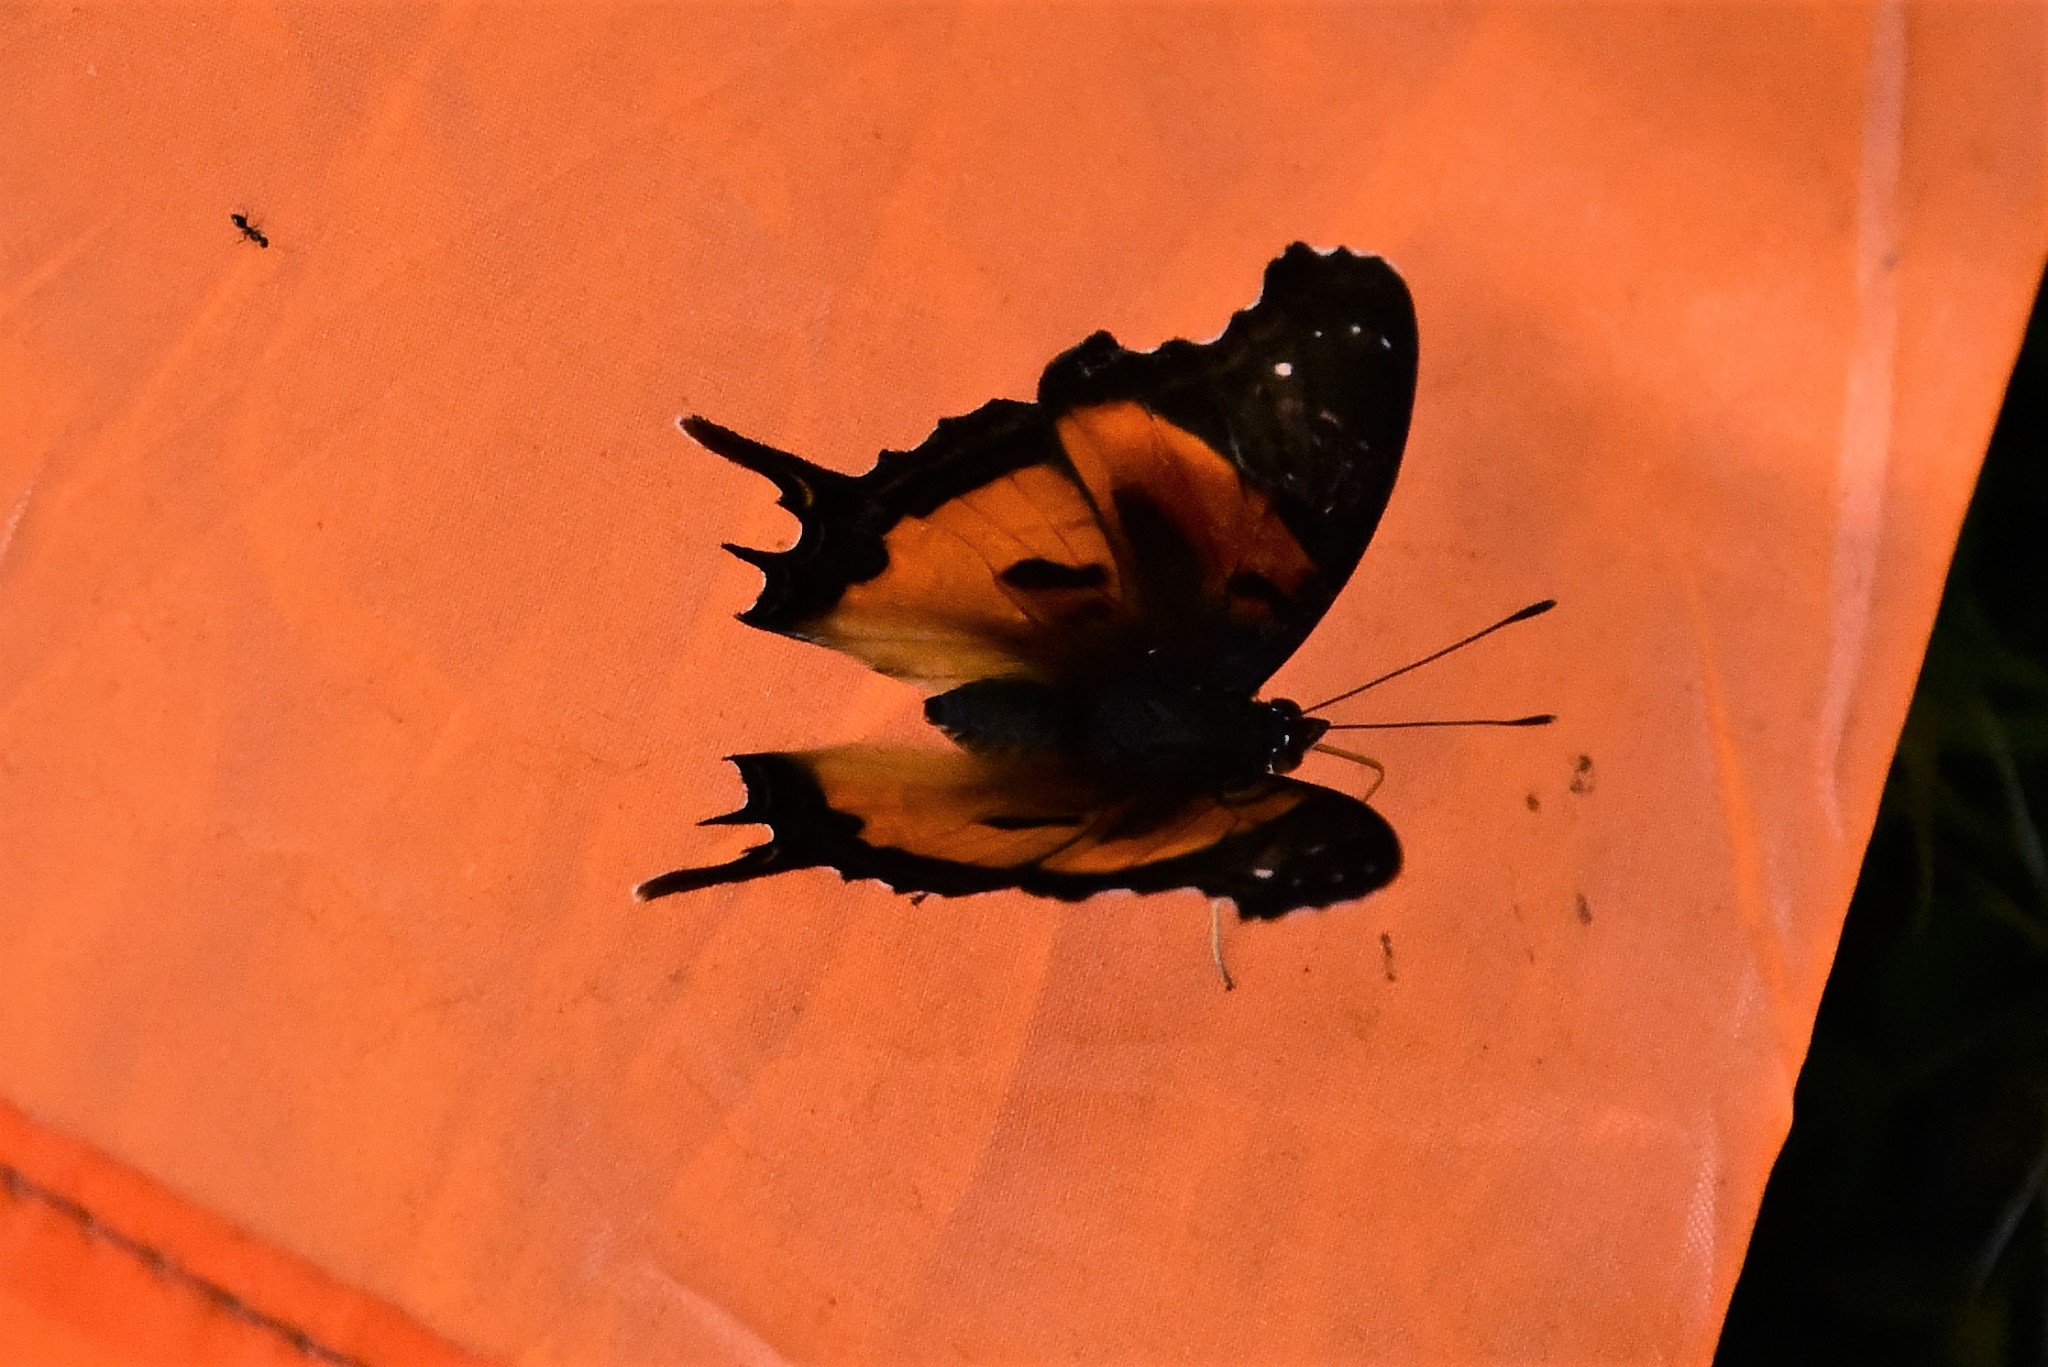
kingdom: Animalia
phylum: Arthropoda
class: Insecta
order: Lepidoptera
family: Nymphalidae
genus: Antanartia
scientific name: Antanartia delius
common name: Forest admiral
